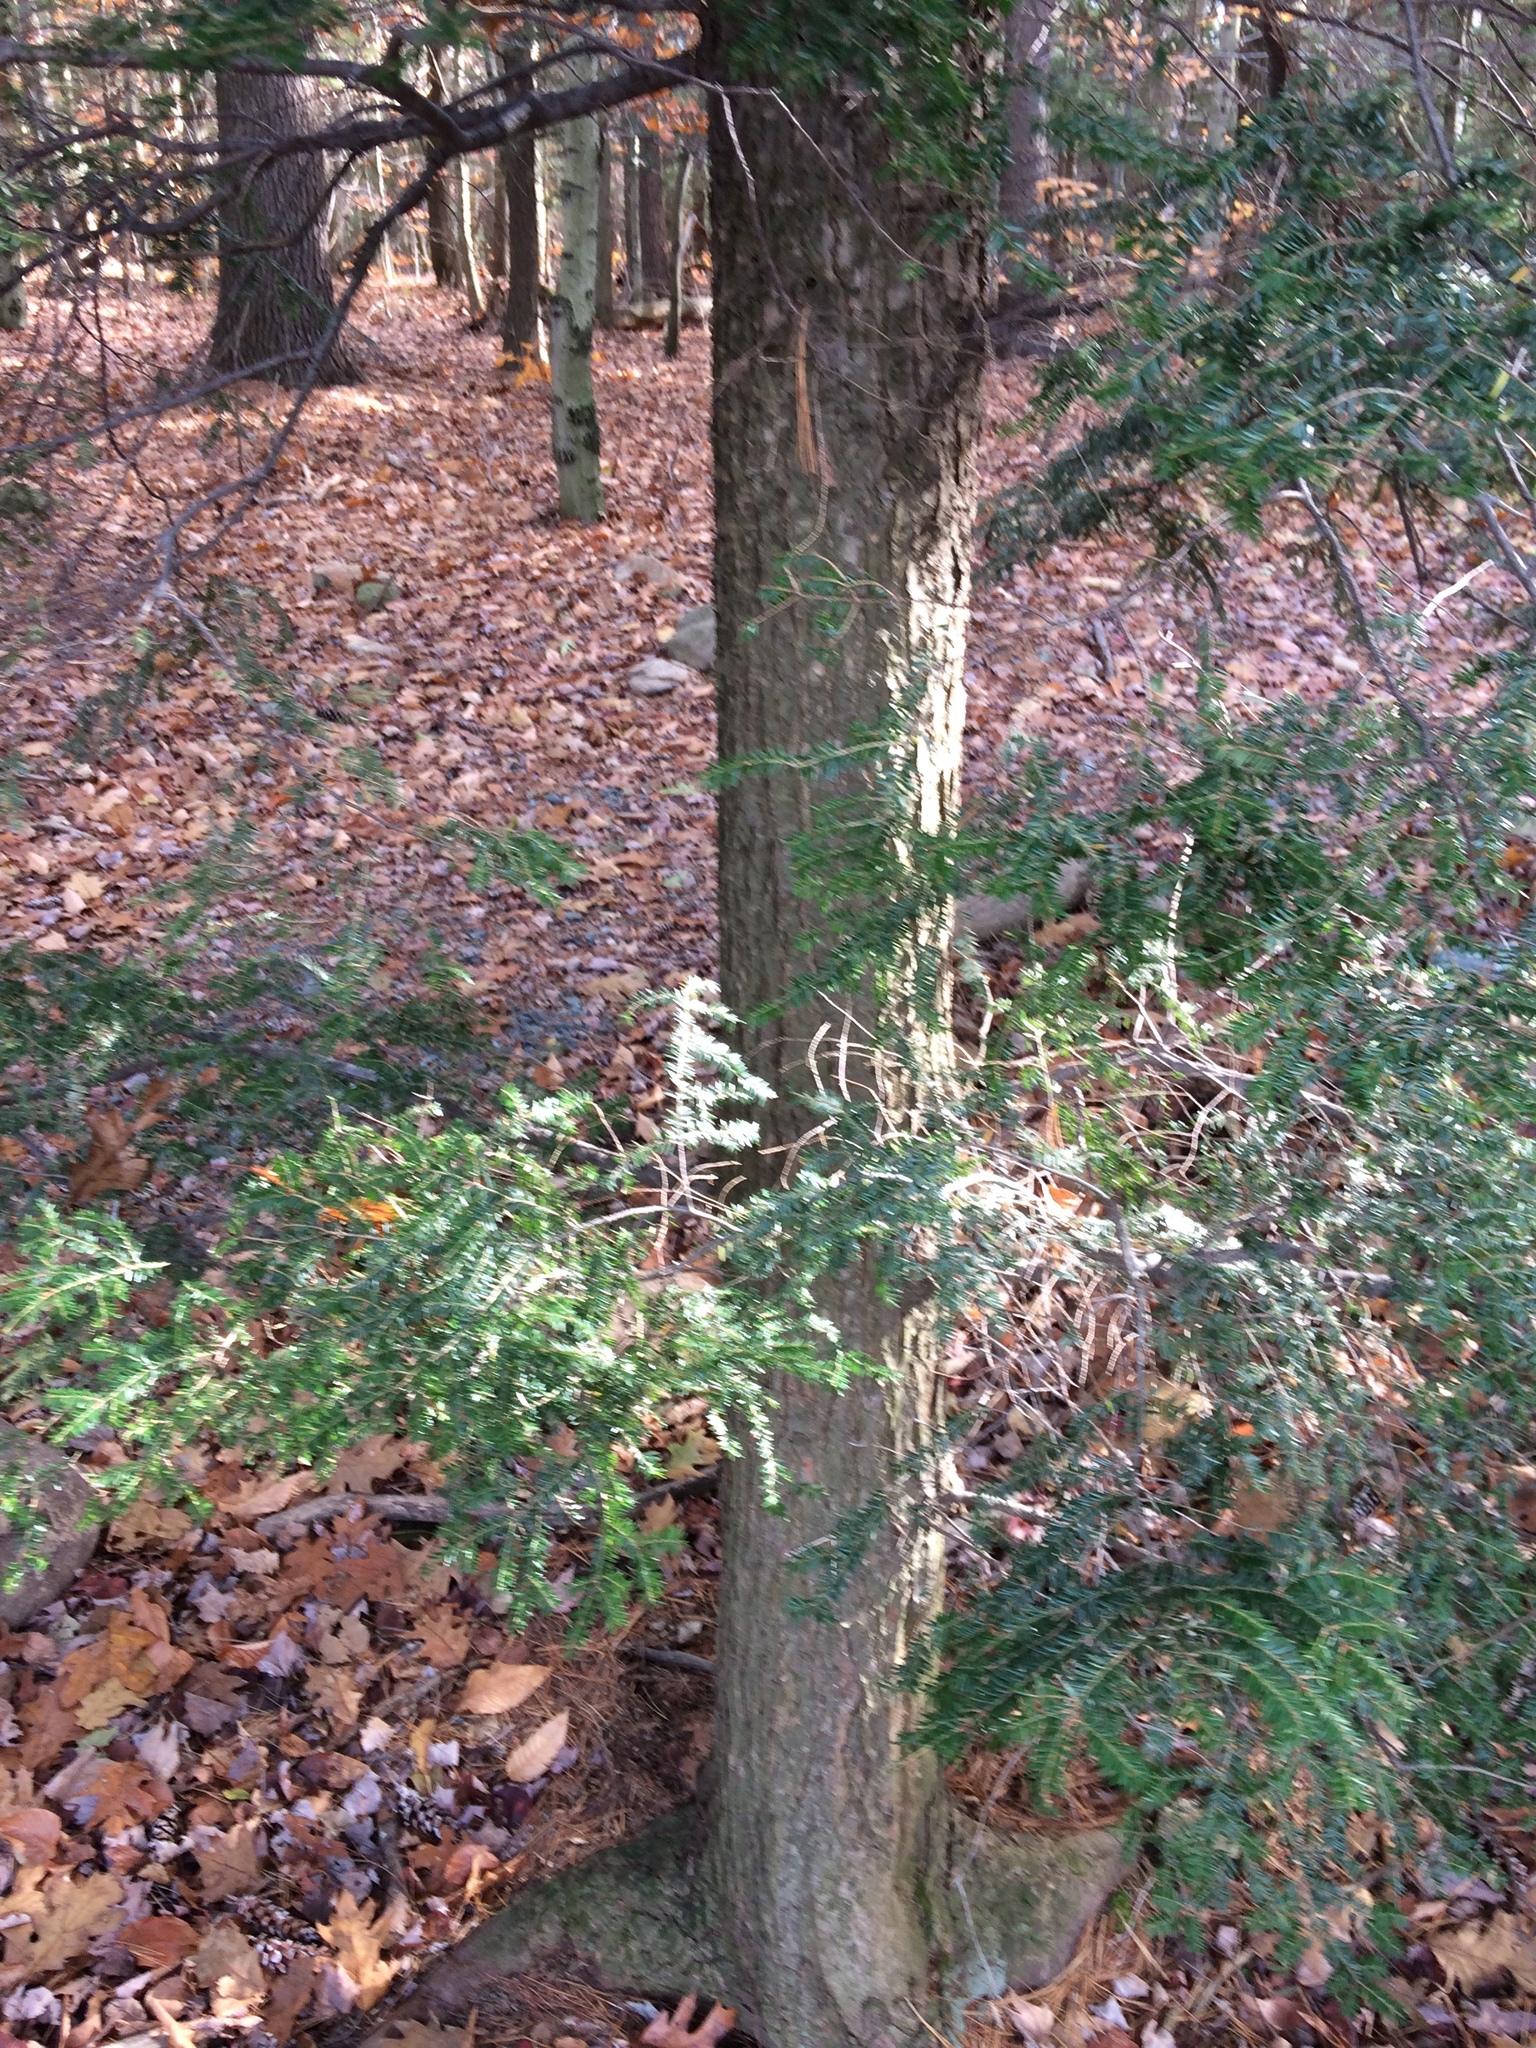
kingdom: Plantae
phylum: Tracheophyta
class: Pinopsida
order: Pinales
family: Pinaceae
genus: Tsuga
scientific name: Tsuga canadensis
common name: Eastern hemlock
